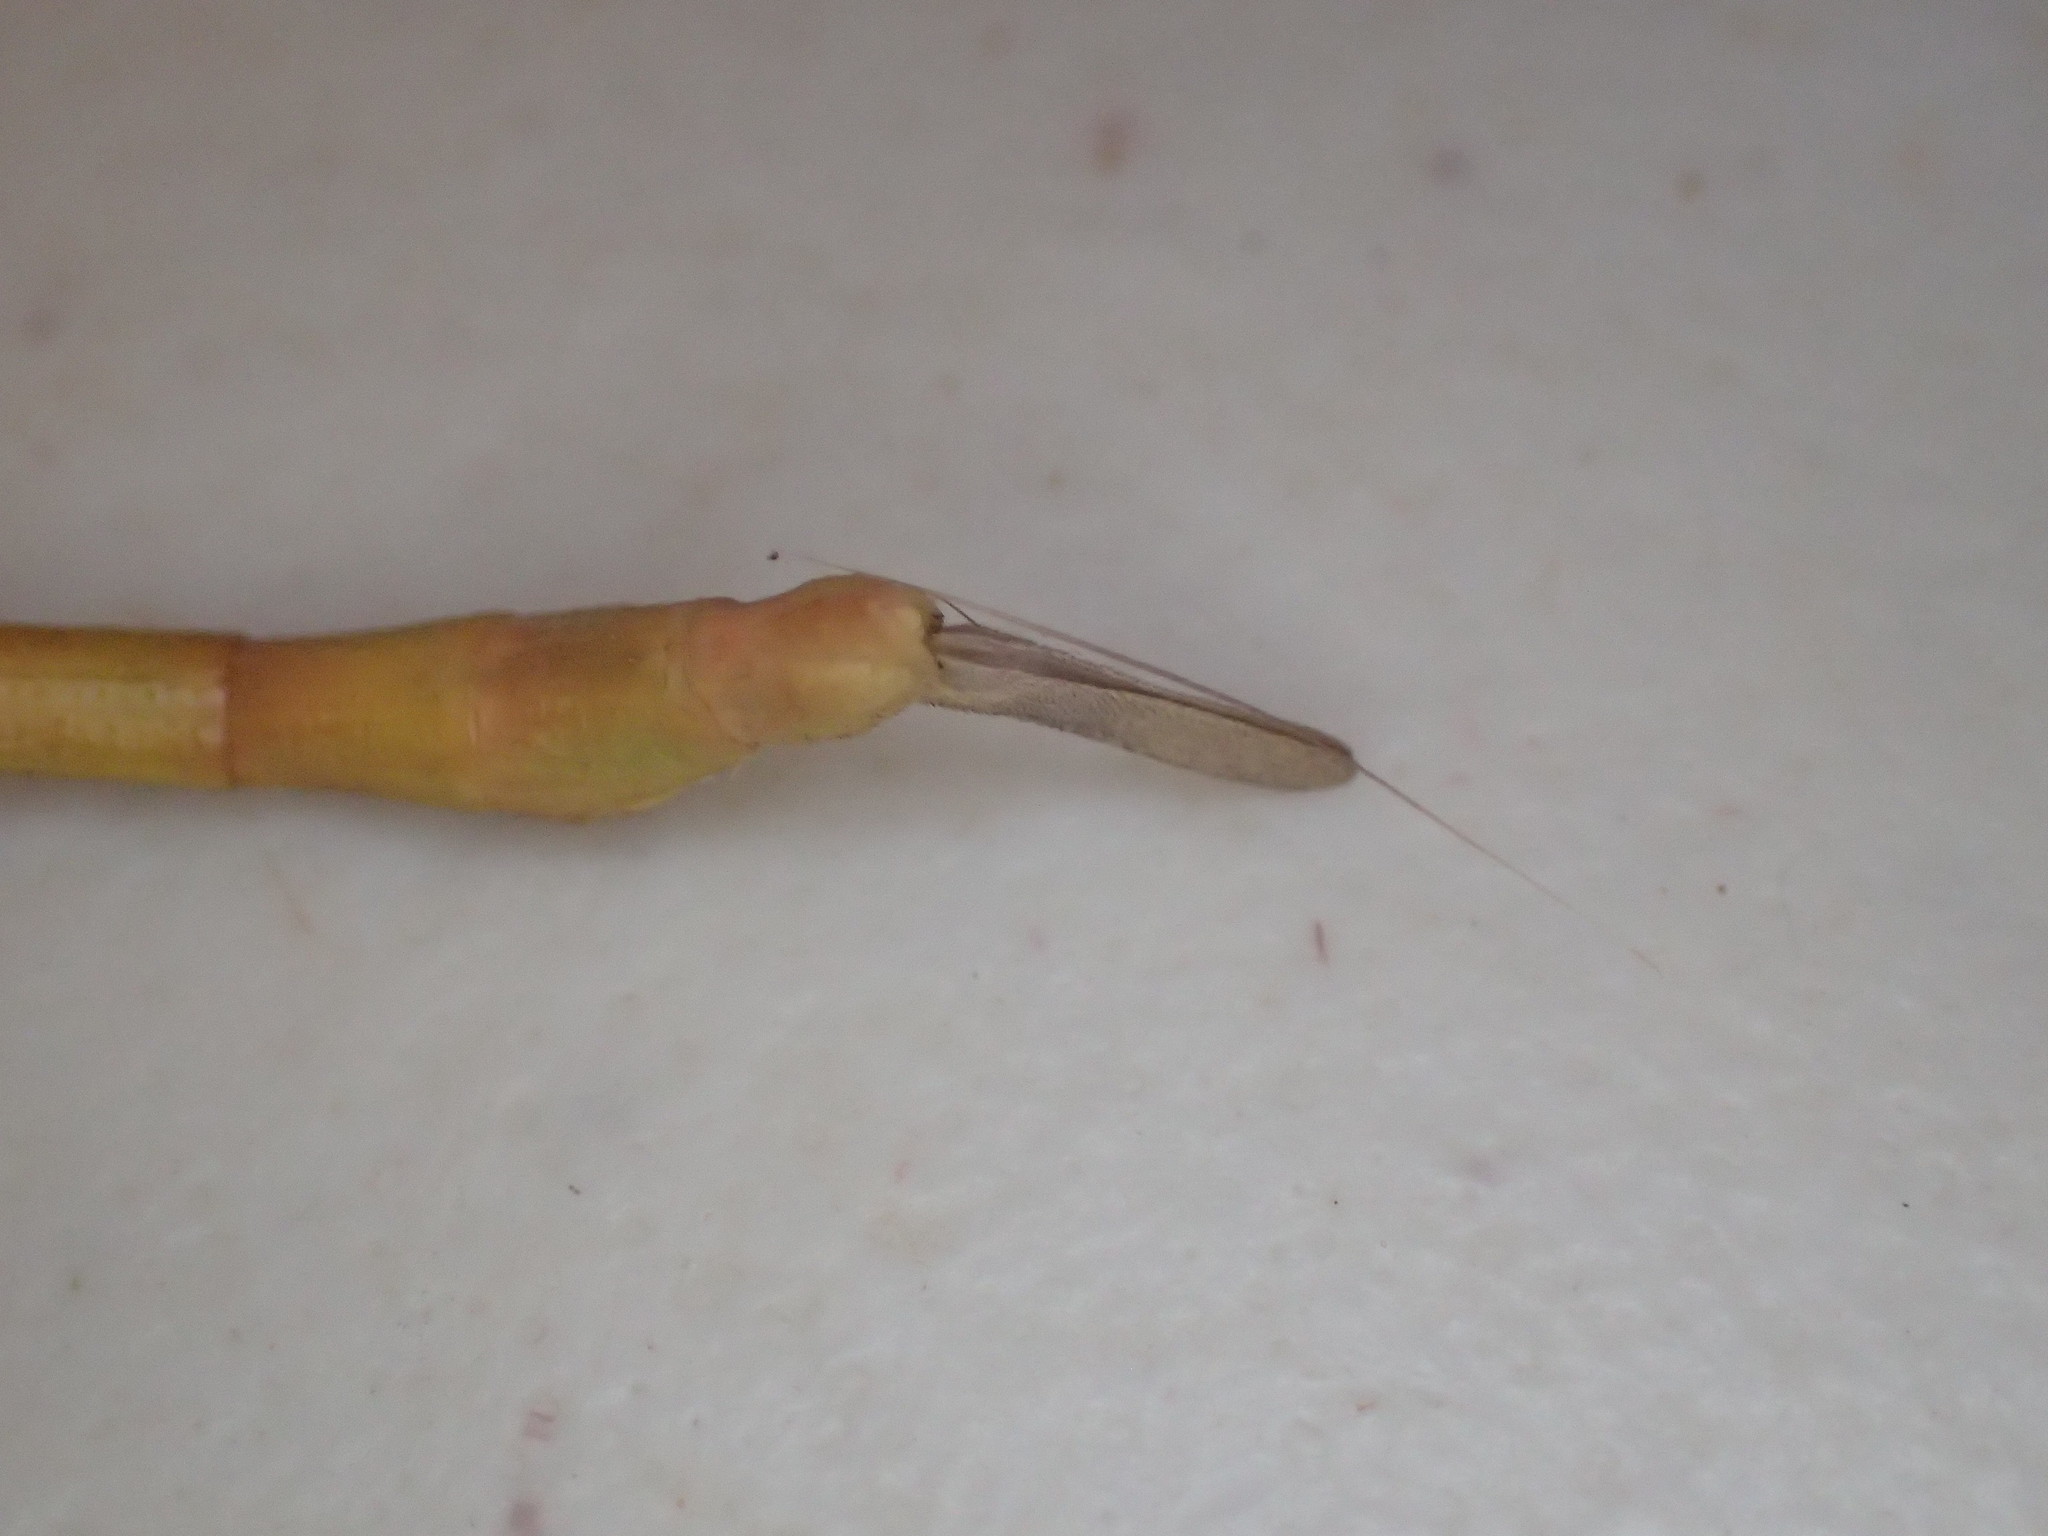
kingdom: Animalia
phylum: Arthropoda
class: Insecta
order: Phasmida
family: Phasmatidae
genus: Tropidoderus
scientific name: Tropidoderus gracilifemur
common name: Sjöstedt's graceful stick-insect
